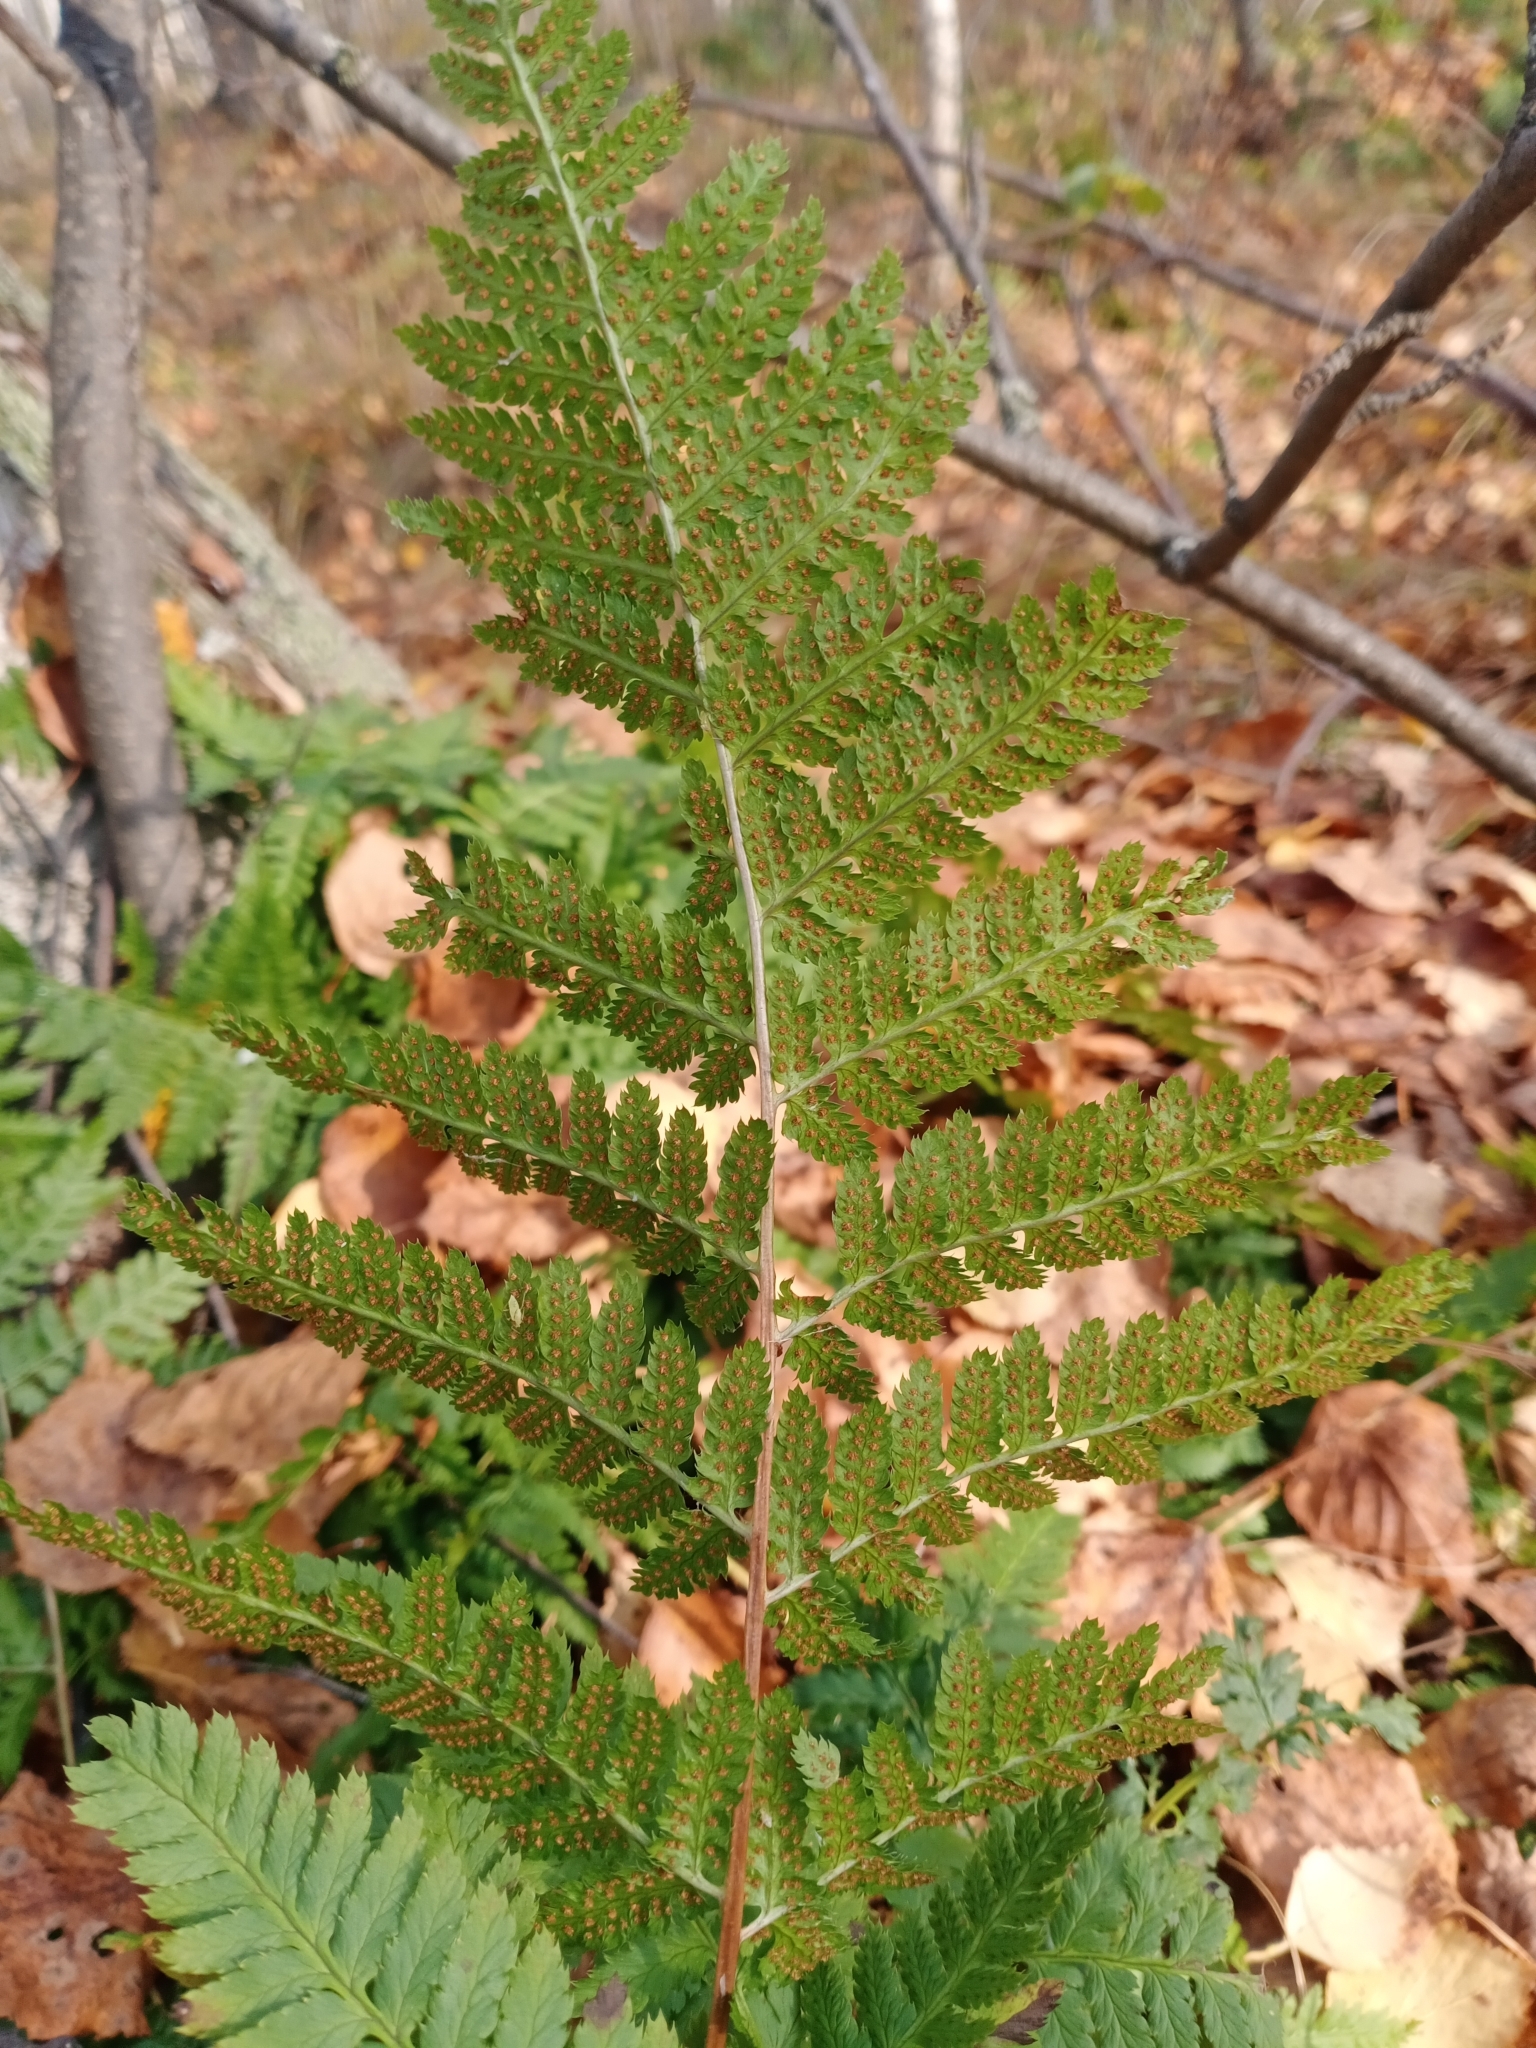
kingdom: Plantae
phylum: Tracheophyta
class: Polypodiopsida
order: Polypodiales
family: Dryopteridaceae
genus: Dryopteris
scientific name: Dryopteris carthusiana
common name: Narrow buckler-fern
